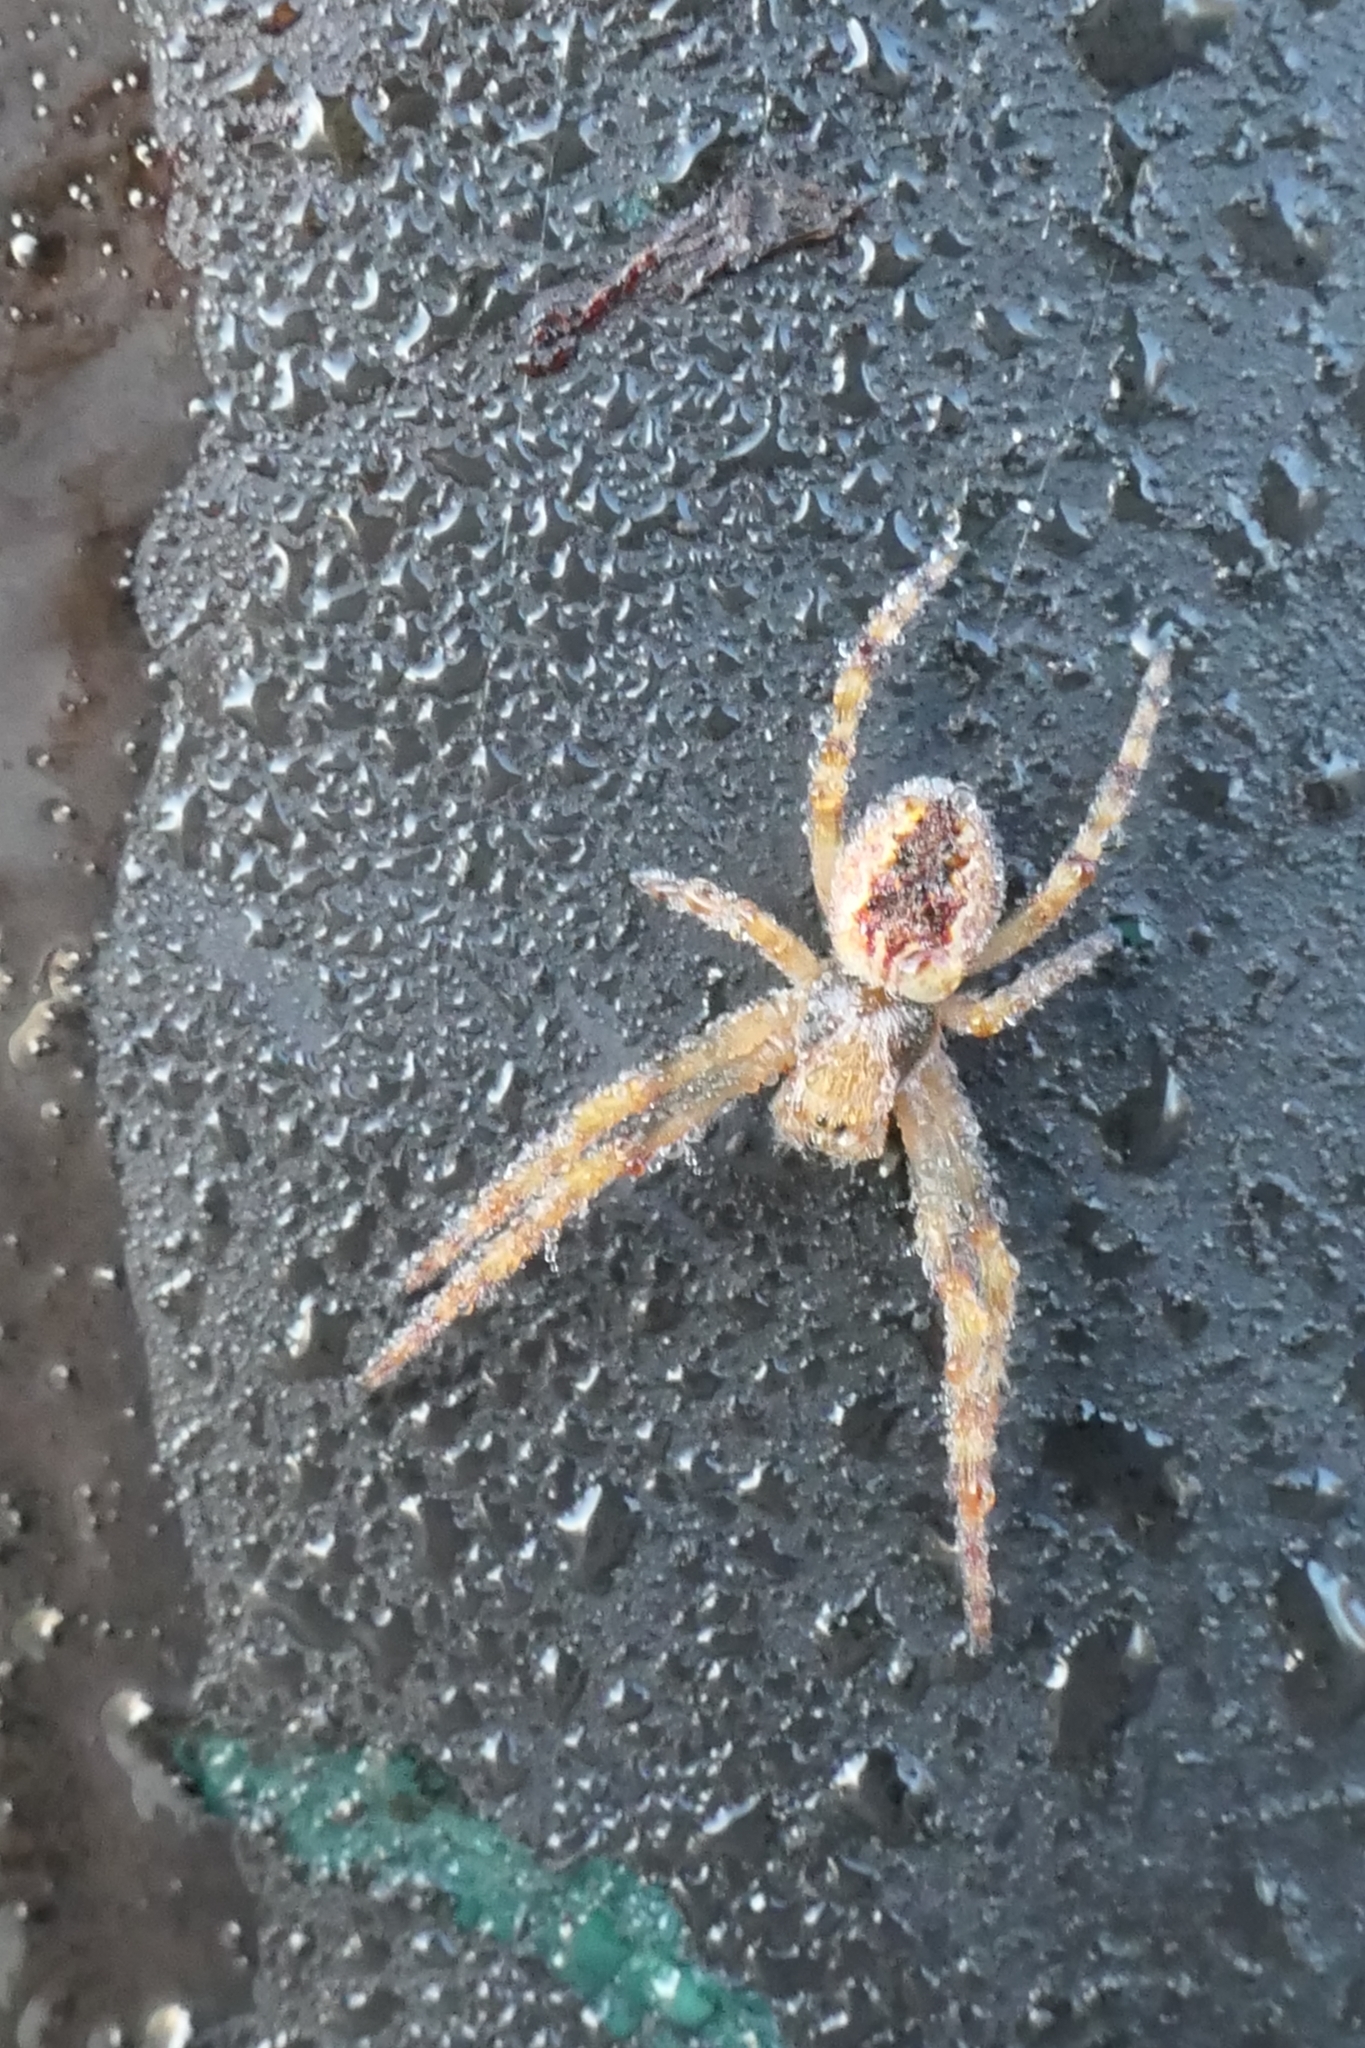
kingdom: Animalia
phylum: Arthropoda
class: Arachnida
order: Araneae
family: Araneidae
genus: Salsa
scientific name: Salsa fuliginata
